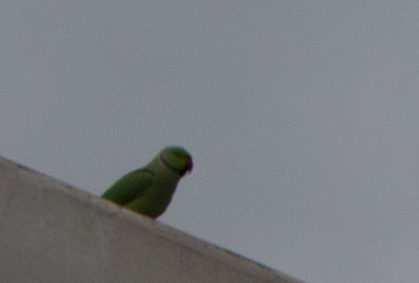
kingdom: Animalia
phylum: Chordata
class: Aves
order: Psittaciformes
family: Psittacidae
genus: Psittacula
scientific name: Psittacula krameri
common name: Rose-ringed parakeet
